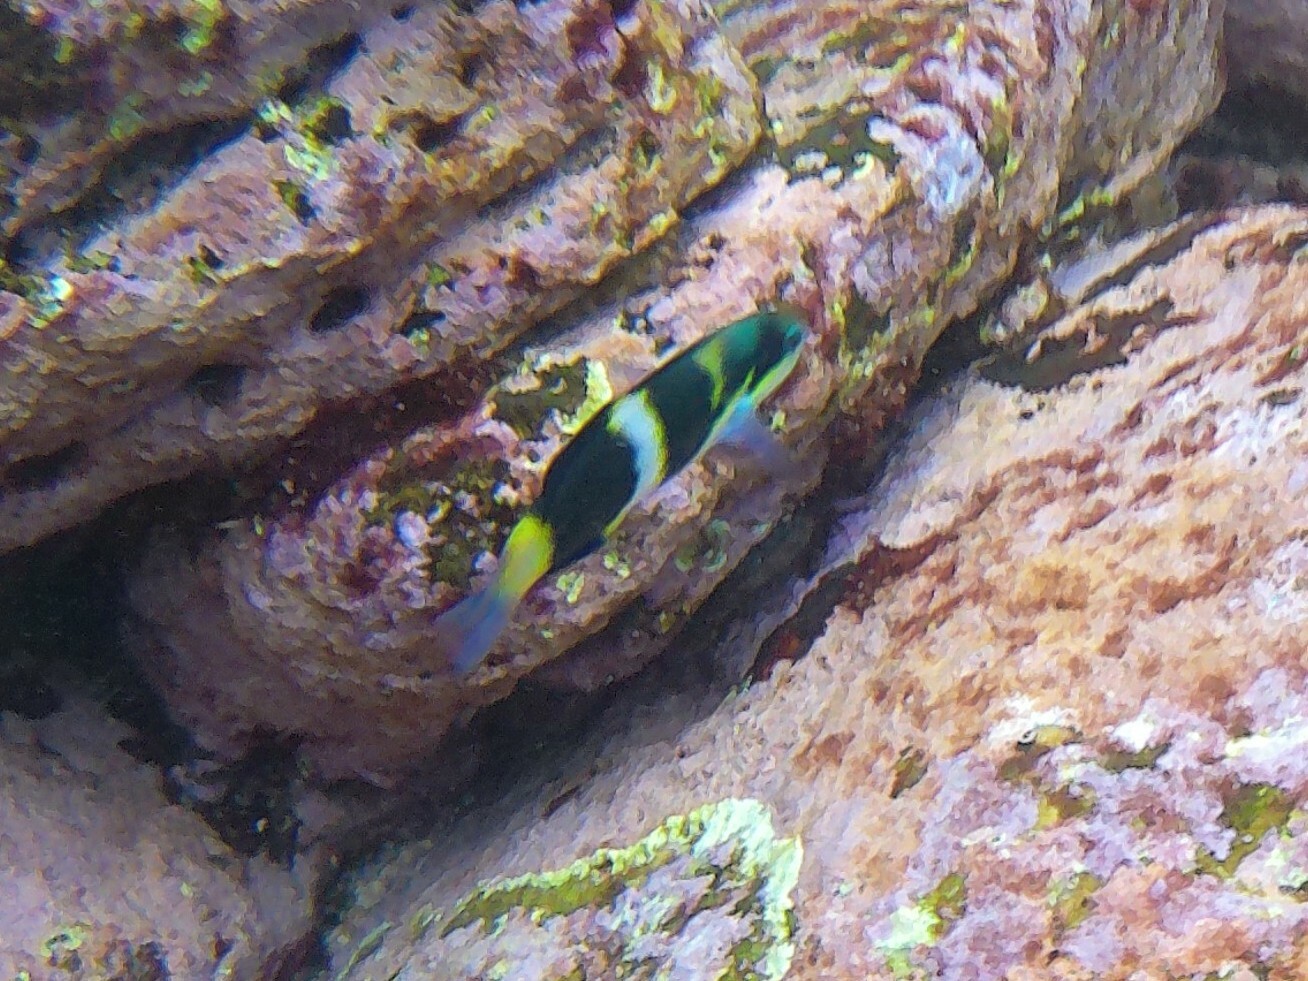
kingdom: Animalia
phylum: Chordata
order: Perciformes
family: Labridae
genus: Thalassoma
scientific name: Thalassoma nigrofasciatum
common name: Black-barred wrasse
